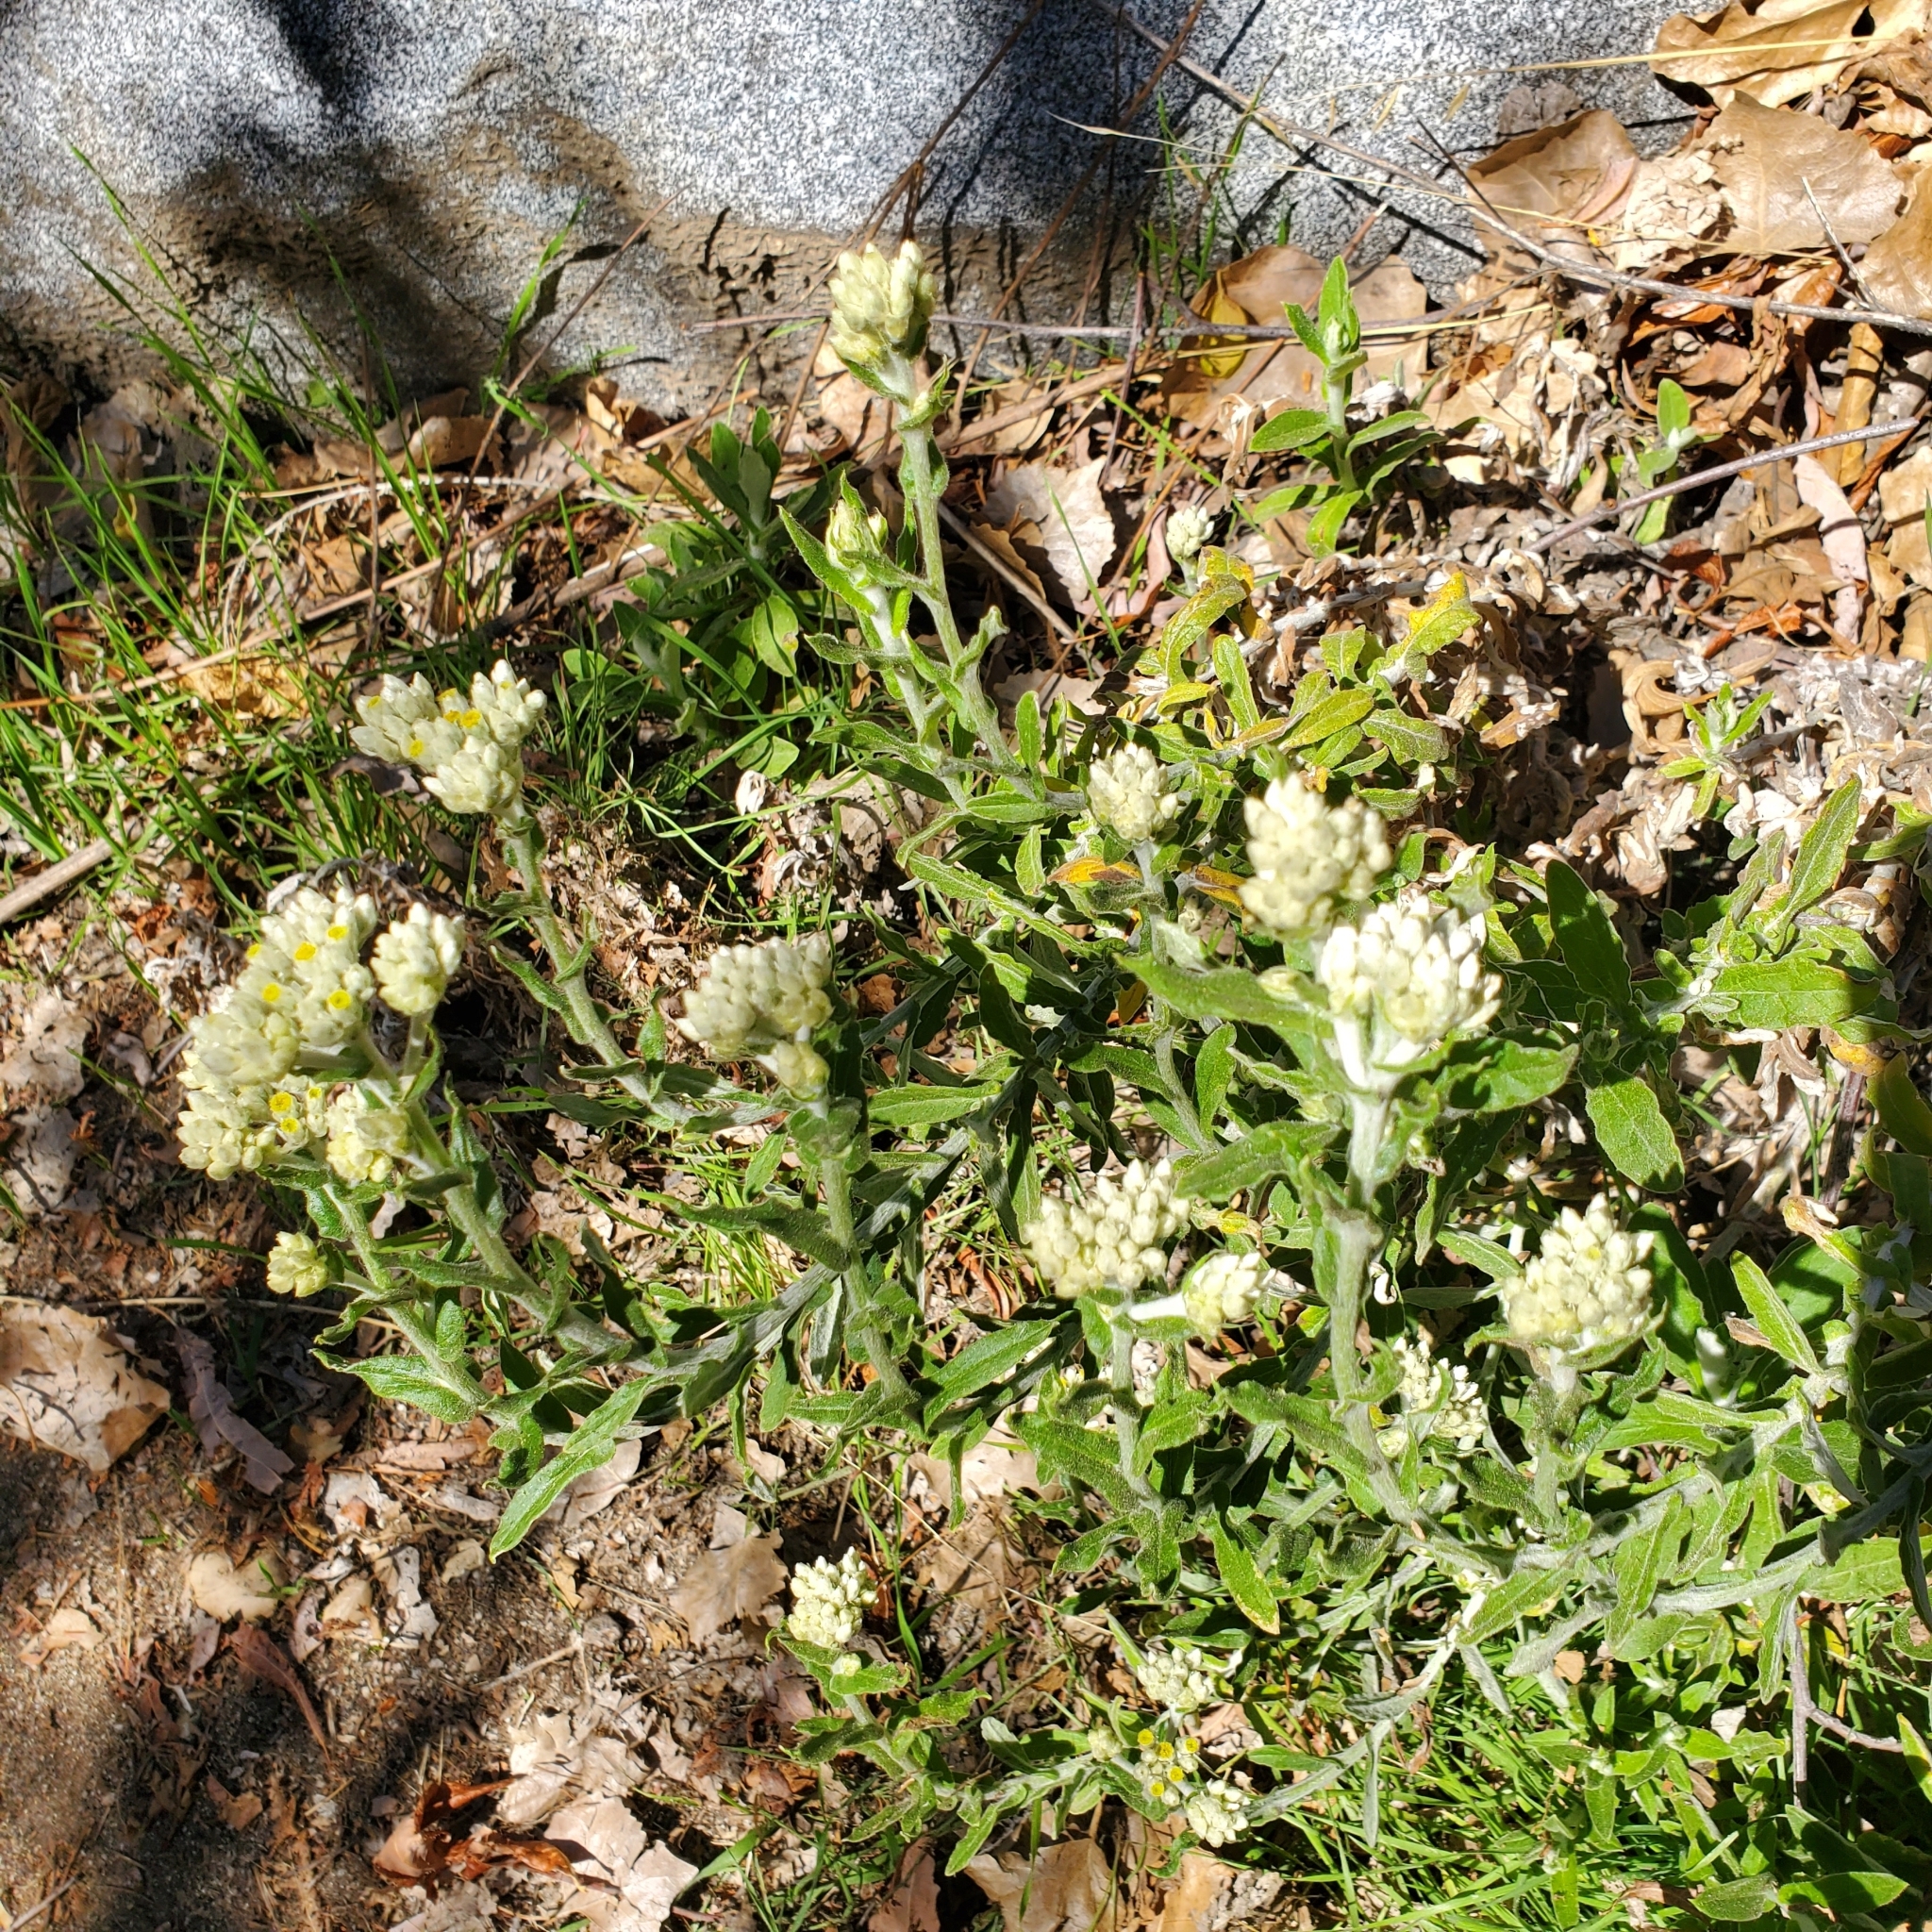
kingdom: Plantae
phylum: Tracheophyta
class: Magnoliopsida
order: Asterales
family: Asteraceae
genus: Pseudognaphalium
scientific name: Pseudognaphalium biolettii
